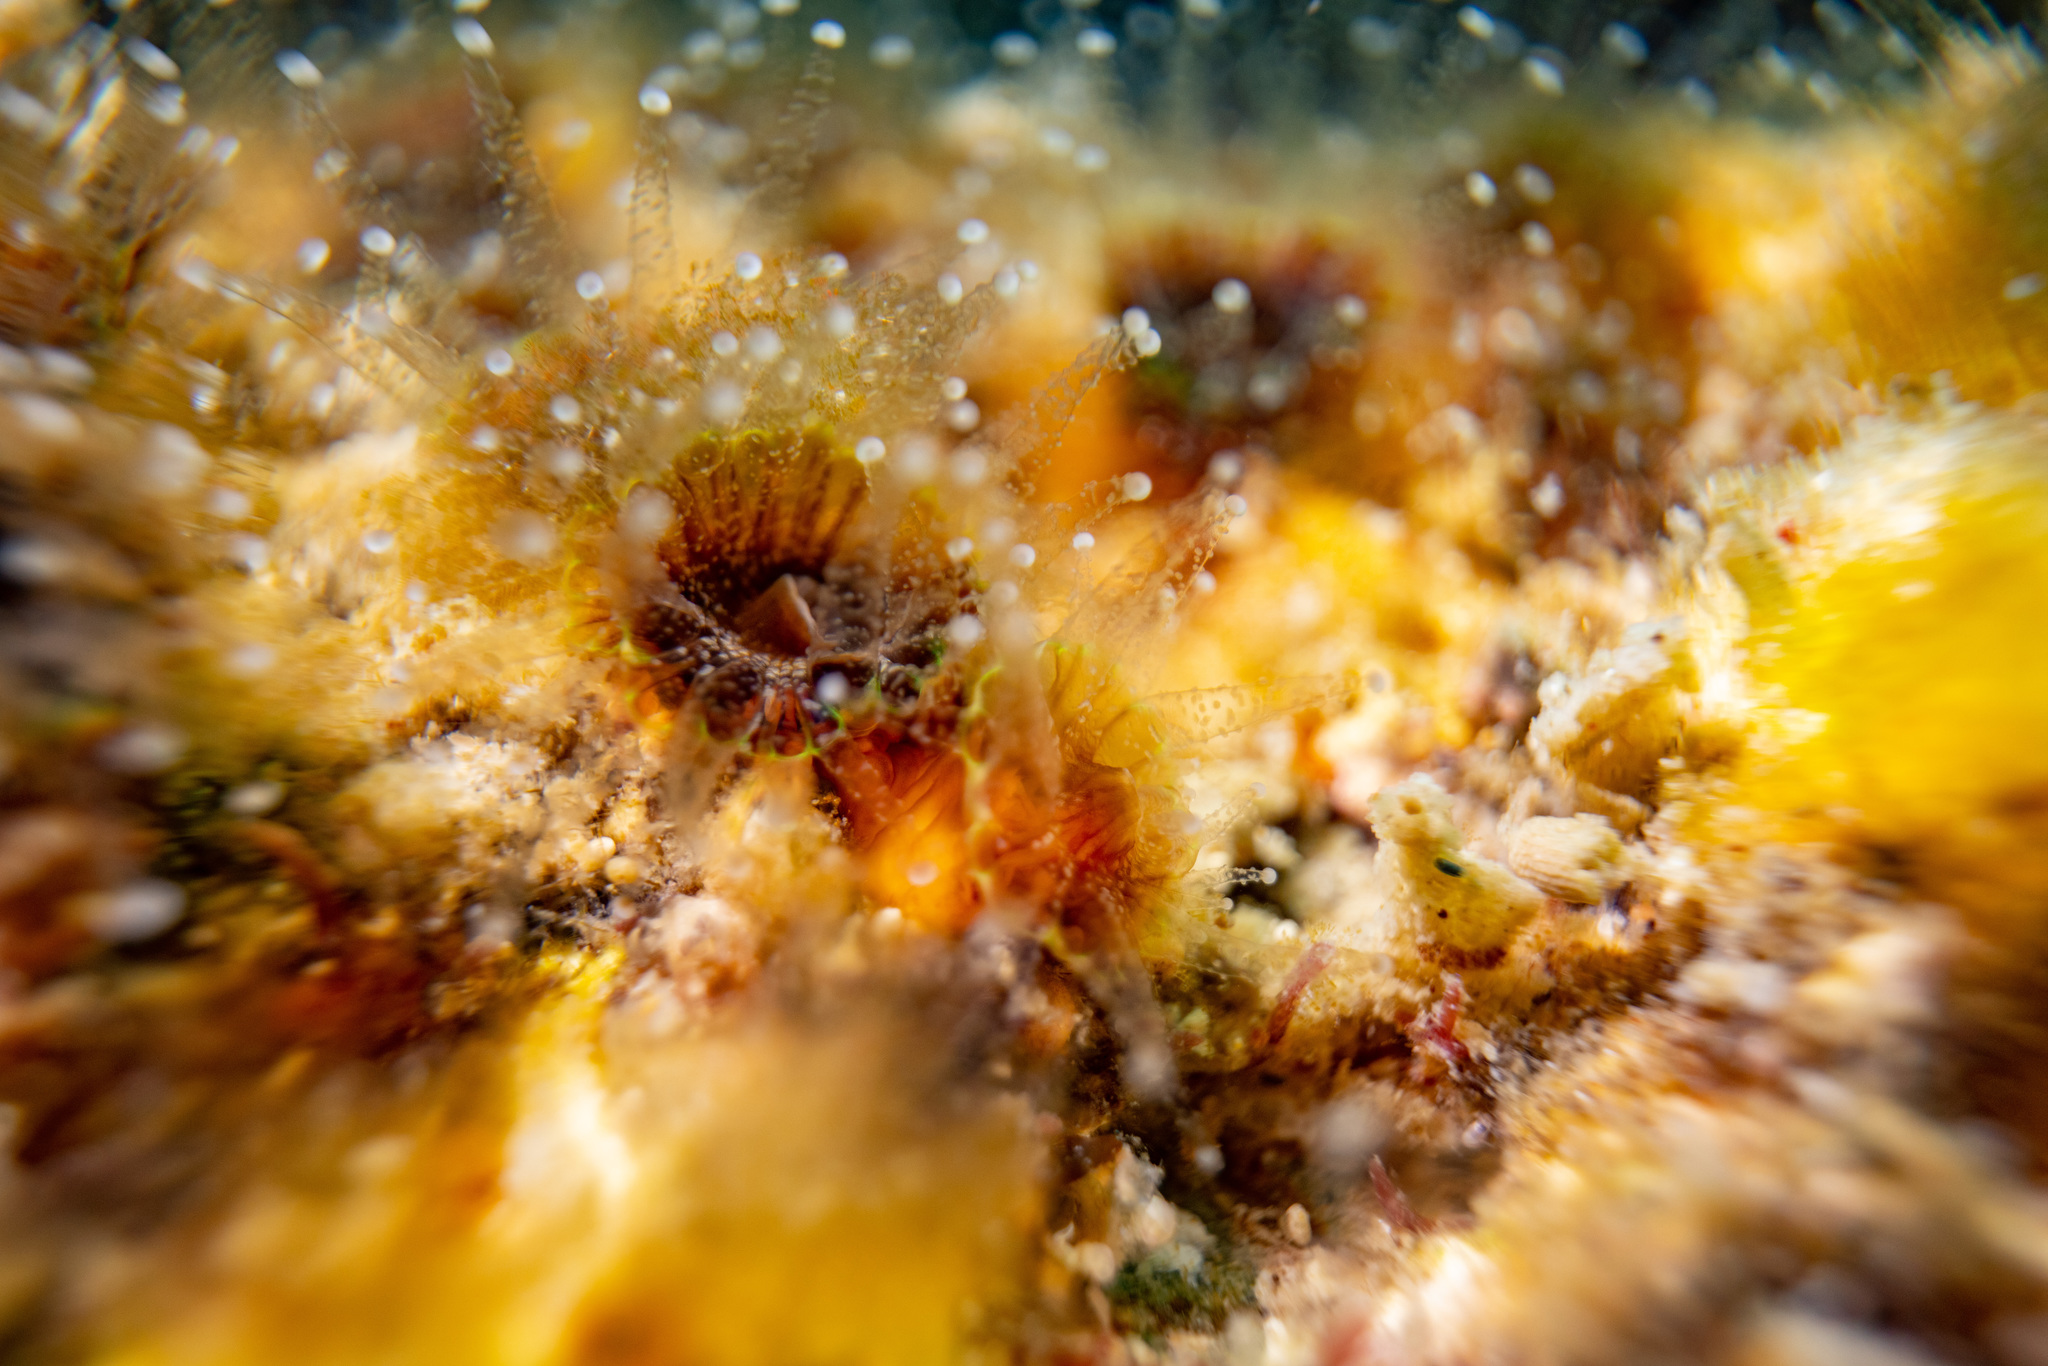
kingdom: Animalia
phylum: Cnidaria
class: Anthozoa
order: Scleractinia
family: Rhizangiidae
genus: Culicia
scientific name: Culicia rubeola
